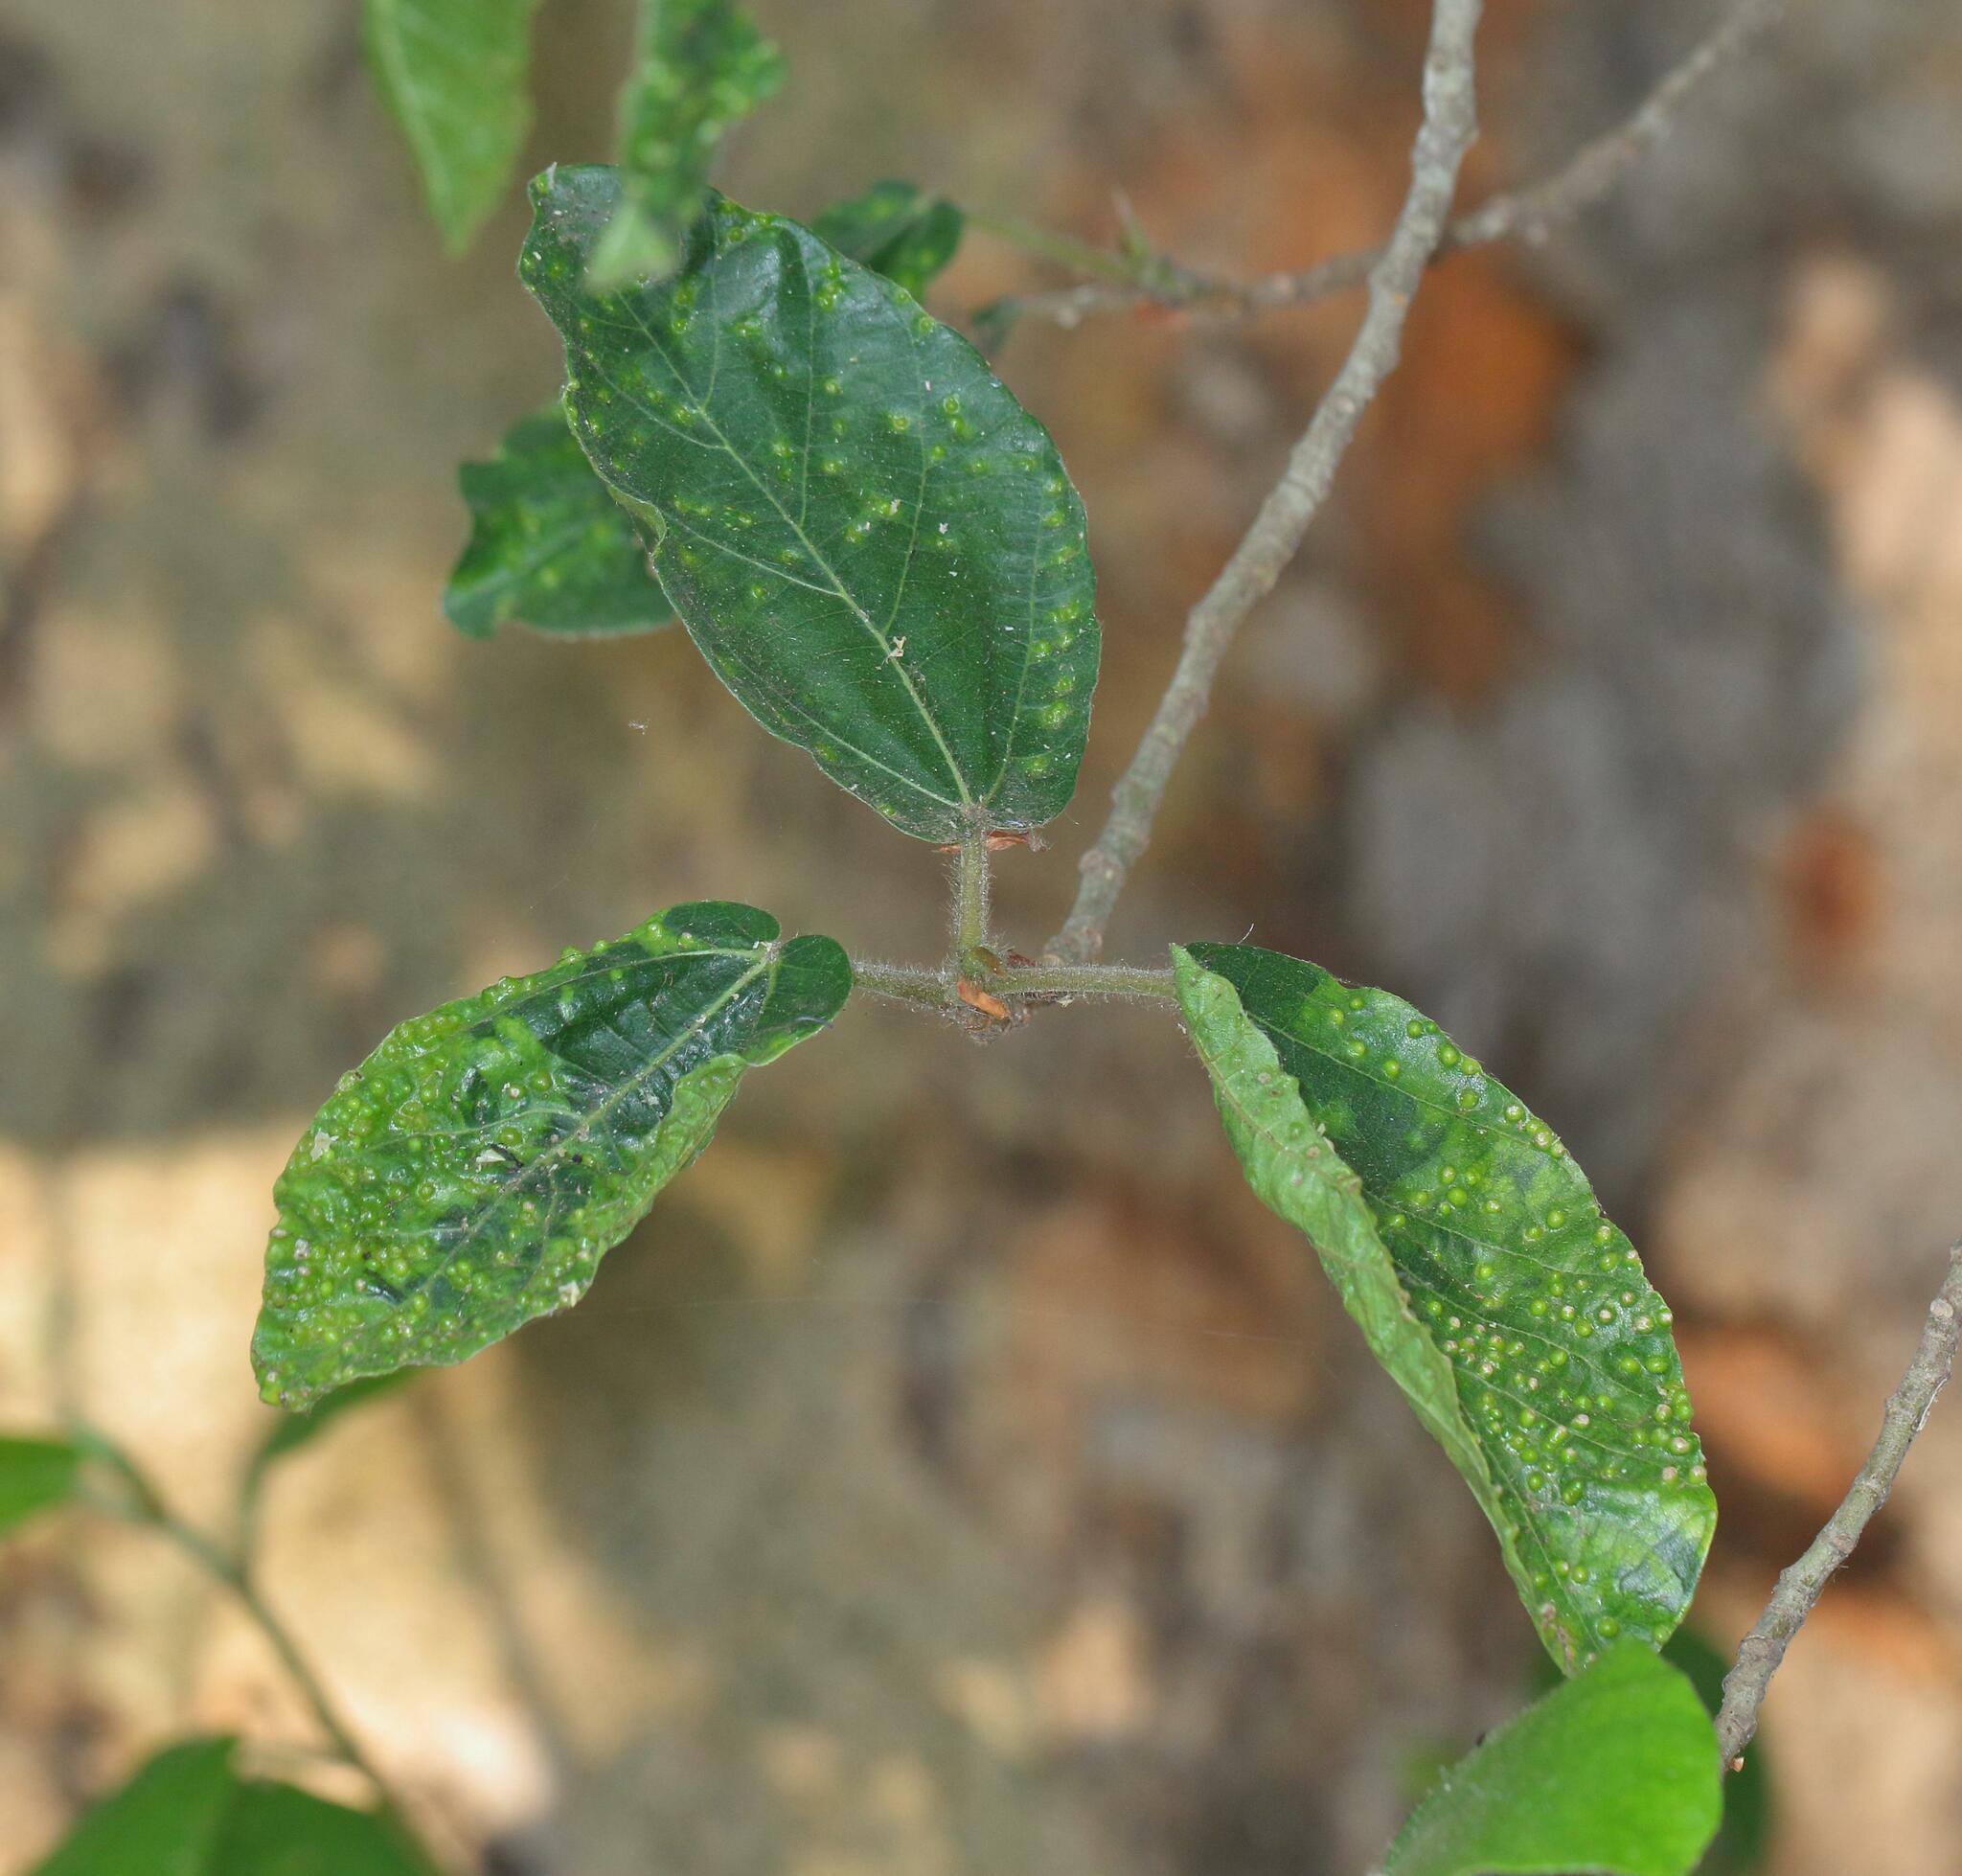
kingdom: Plantae
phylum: Tracheophyta
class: Magnoliopsida
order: Rosales
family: Moraceae
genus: Ficus
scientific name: Ficus sycomorus
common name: Sycomore
